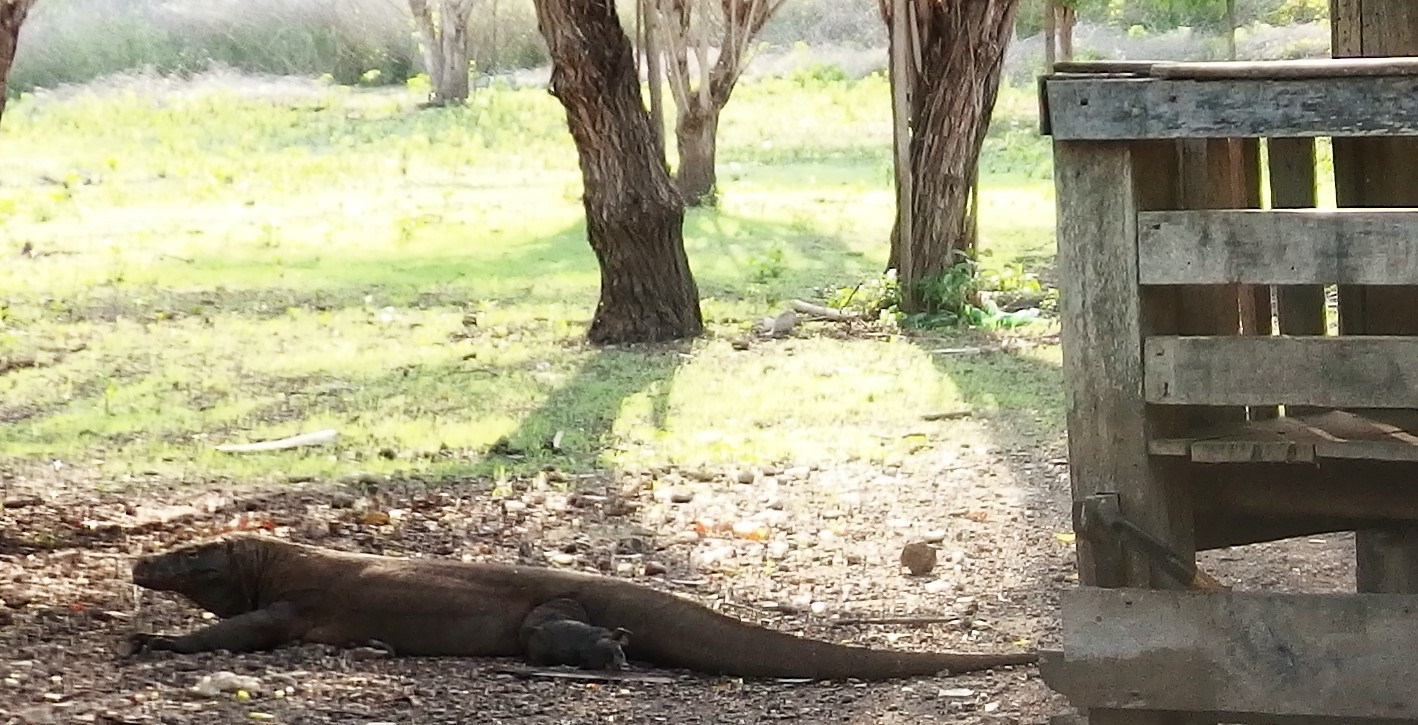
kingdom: Animalia
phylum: Chordata
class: Squamata
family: Varanidae
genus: Varanus
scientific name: Varanus komodoensis
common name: Komodo dragon
